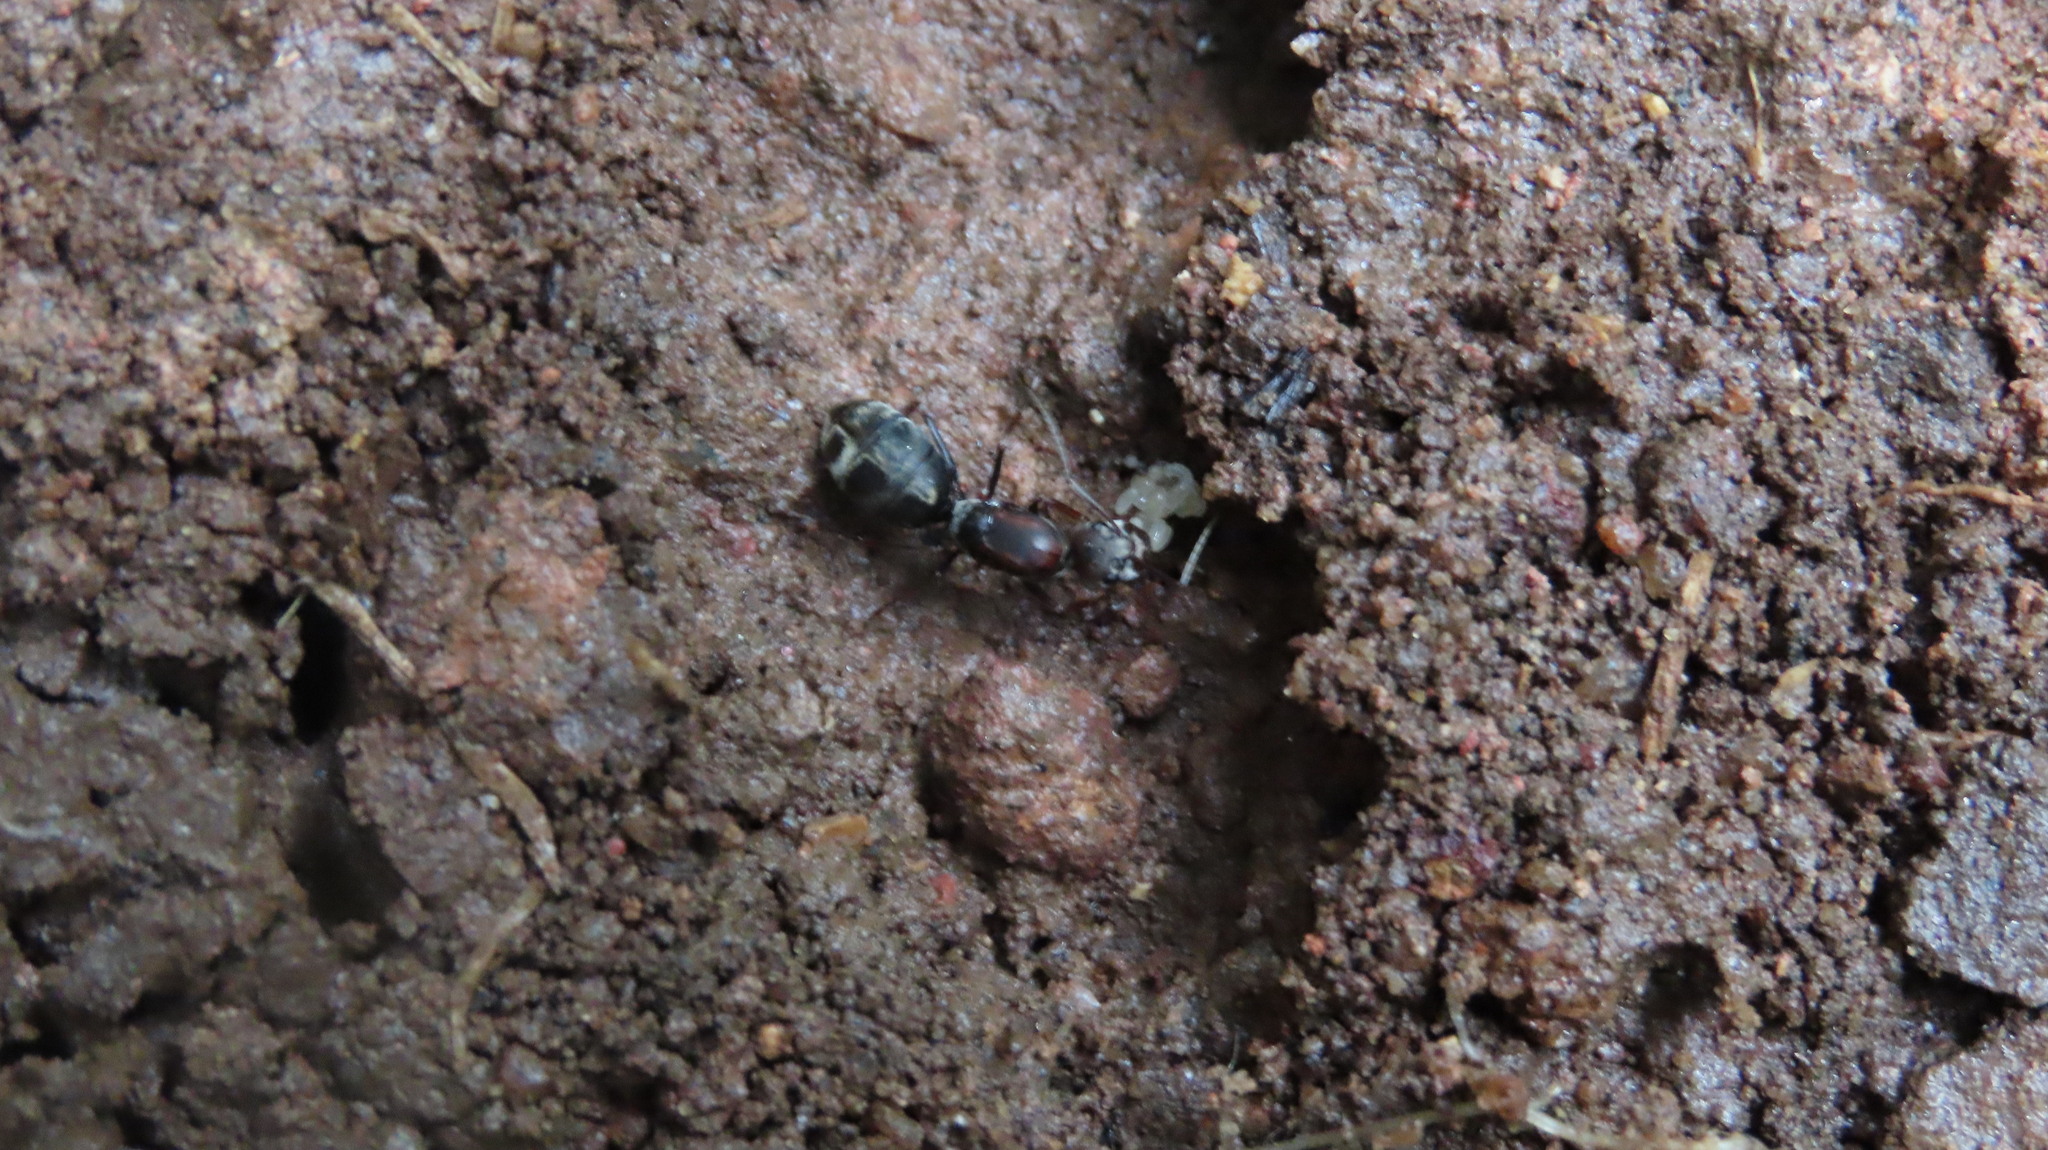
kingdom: Animalia
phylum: Arthropoda
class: Insecta
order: Hymenoptera
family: Formicidae
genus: Camponotus
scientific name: Camponotus rufoglaucus
